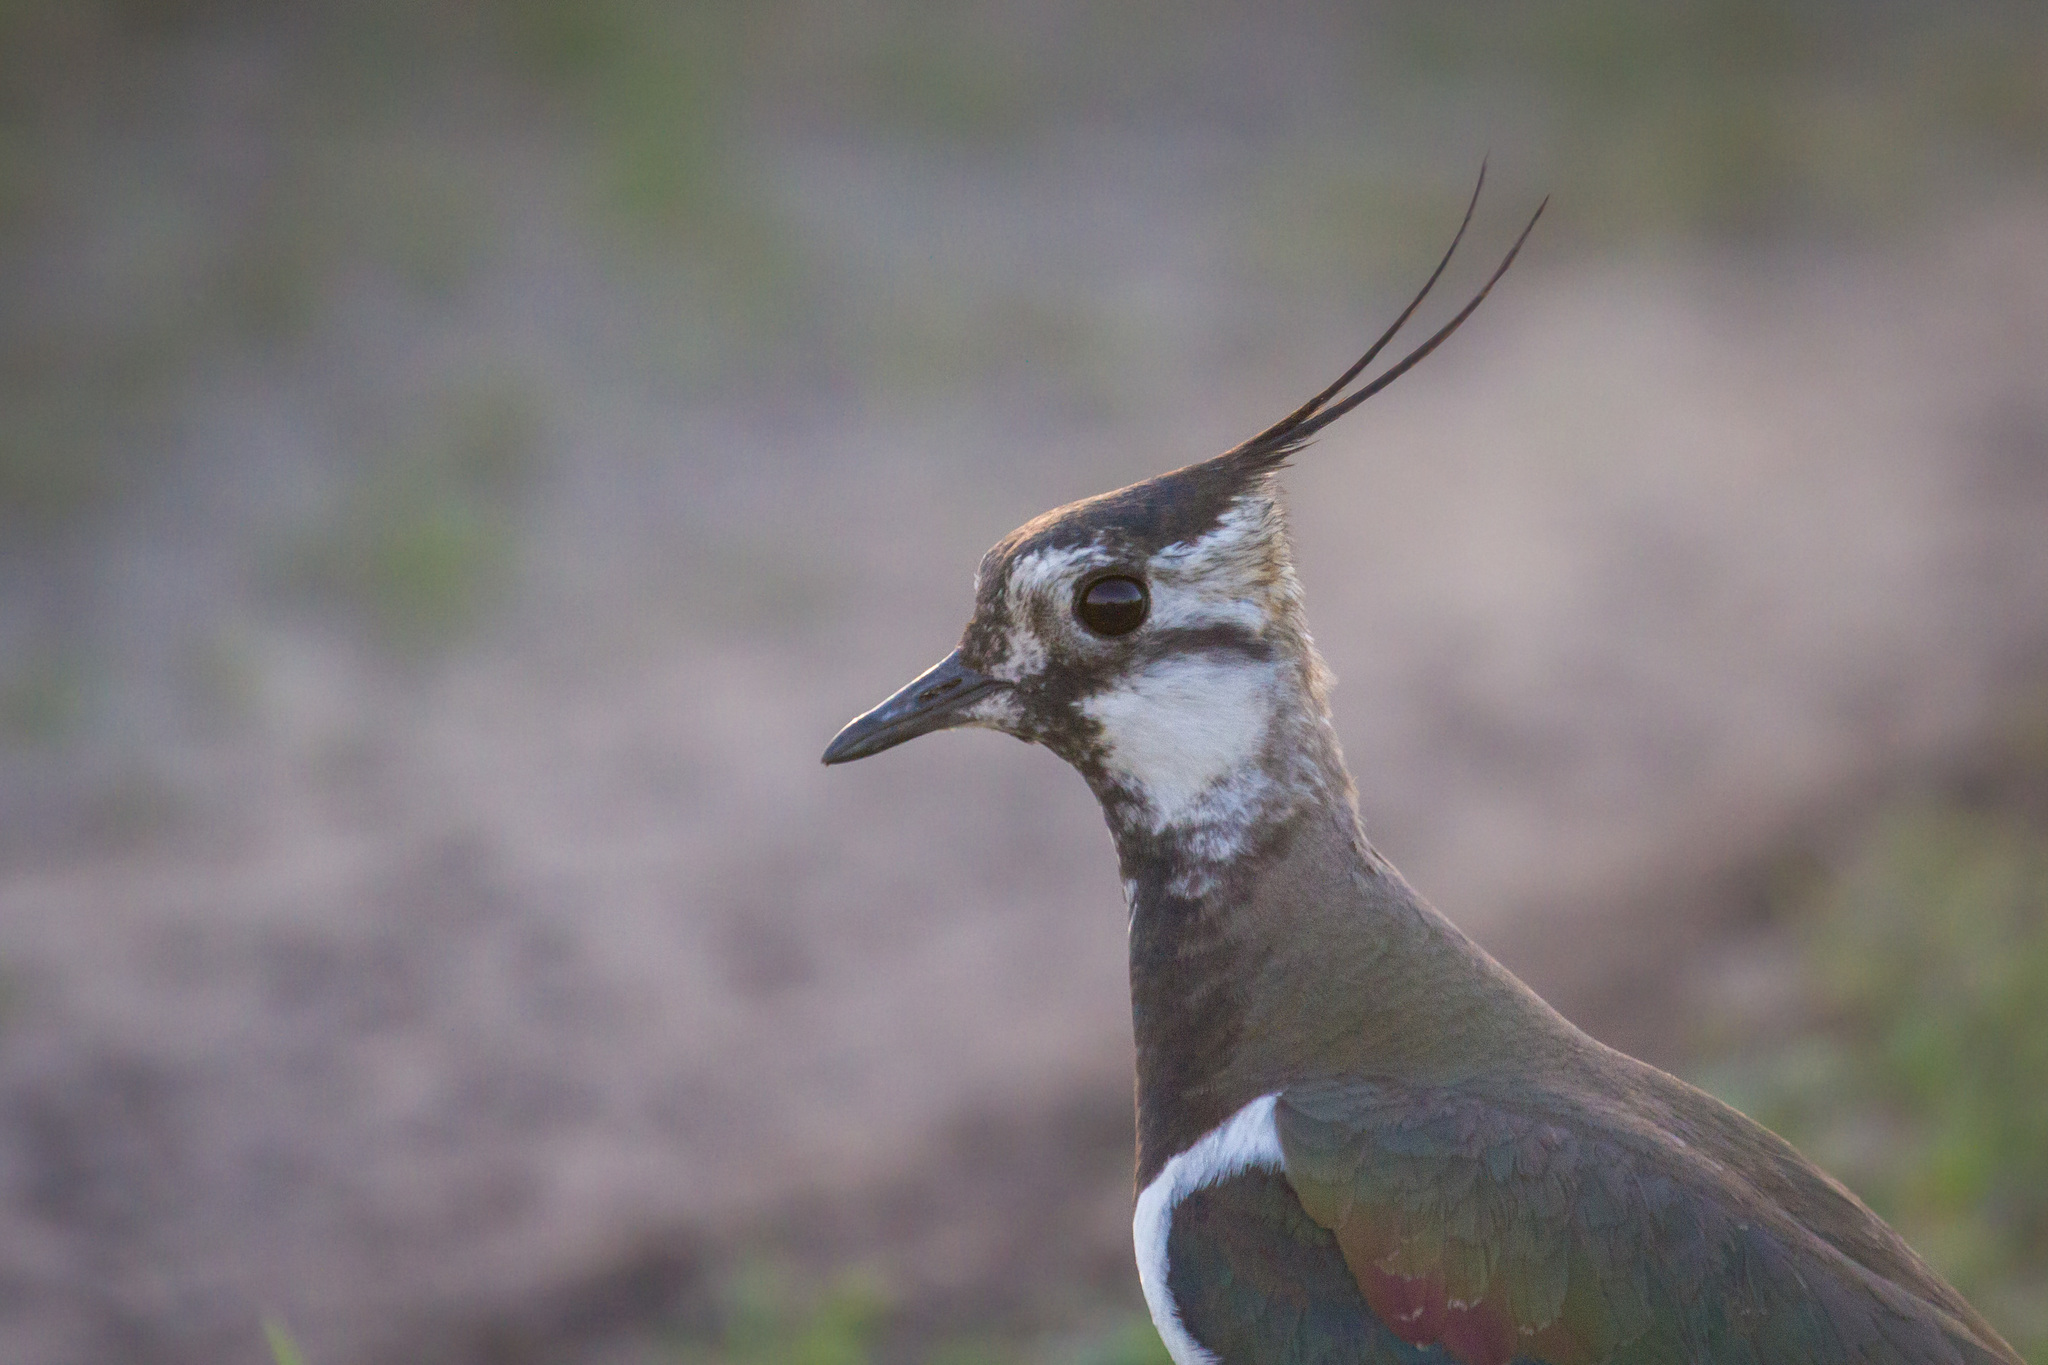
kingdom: Animalia
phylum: Chordata
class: Aves
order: Charadriiformes
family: Charadriidae
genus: Vanellus
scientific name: Vanellus vanellus
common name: Northern lapwing
